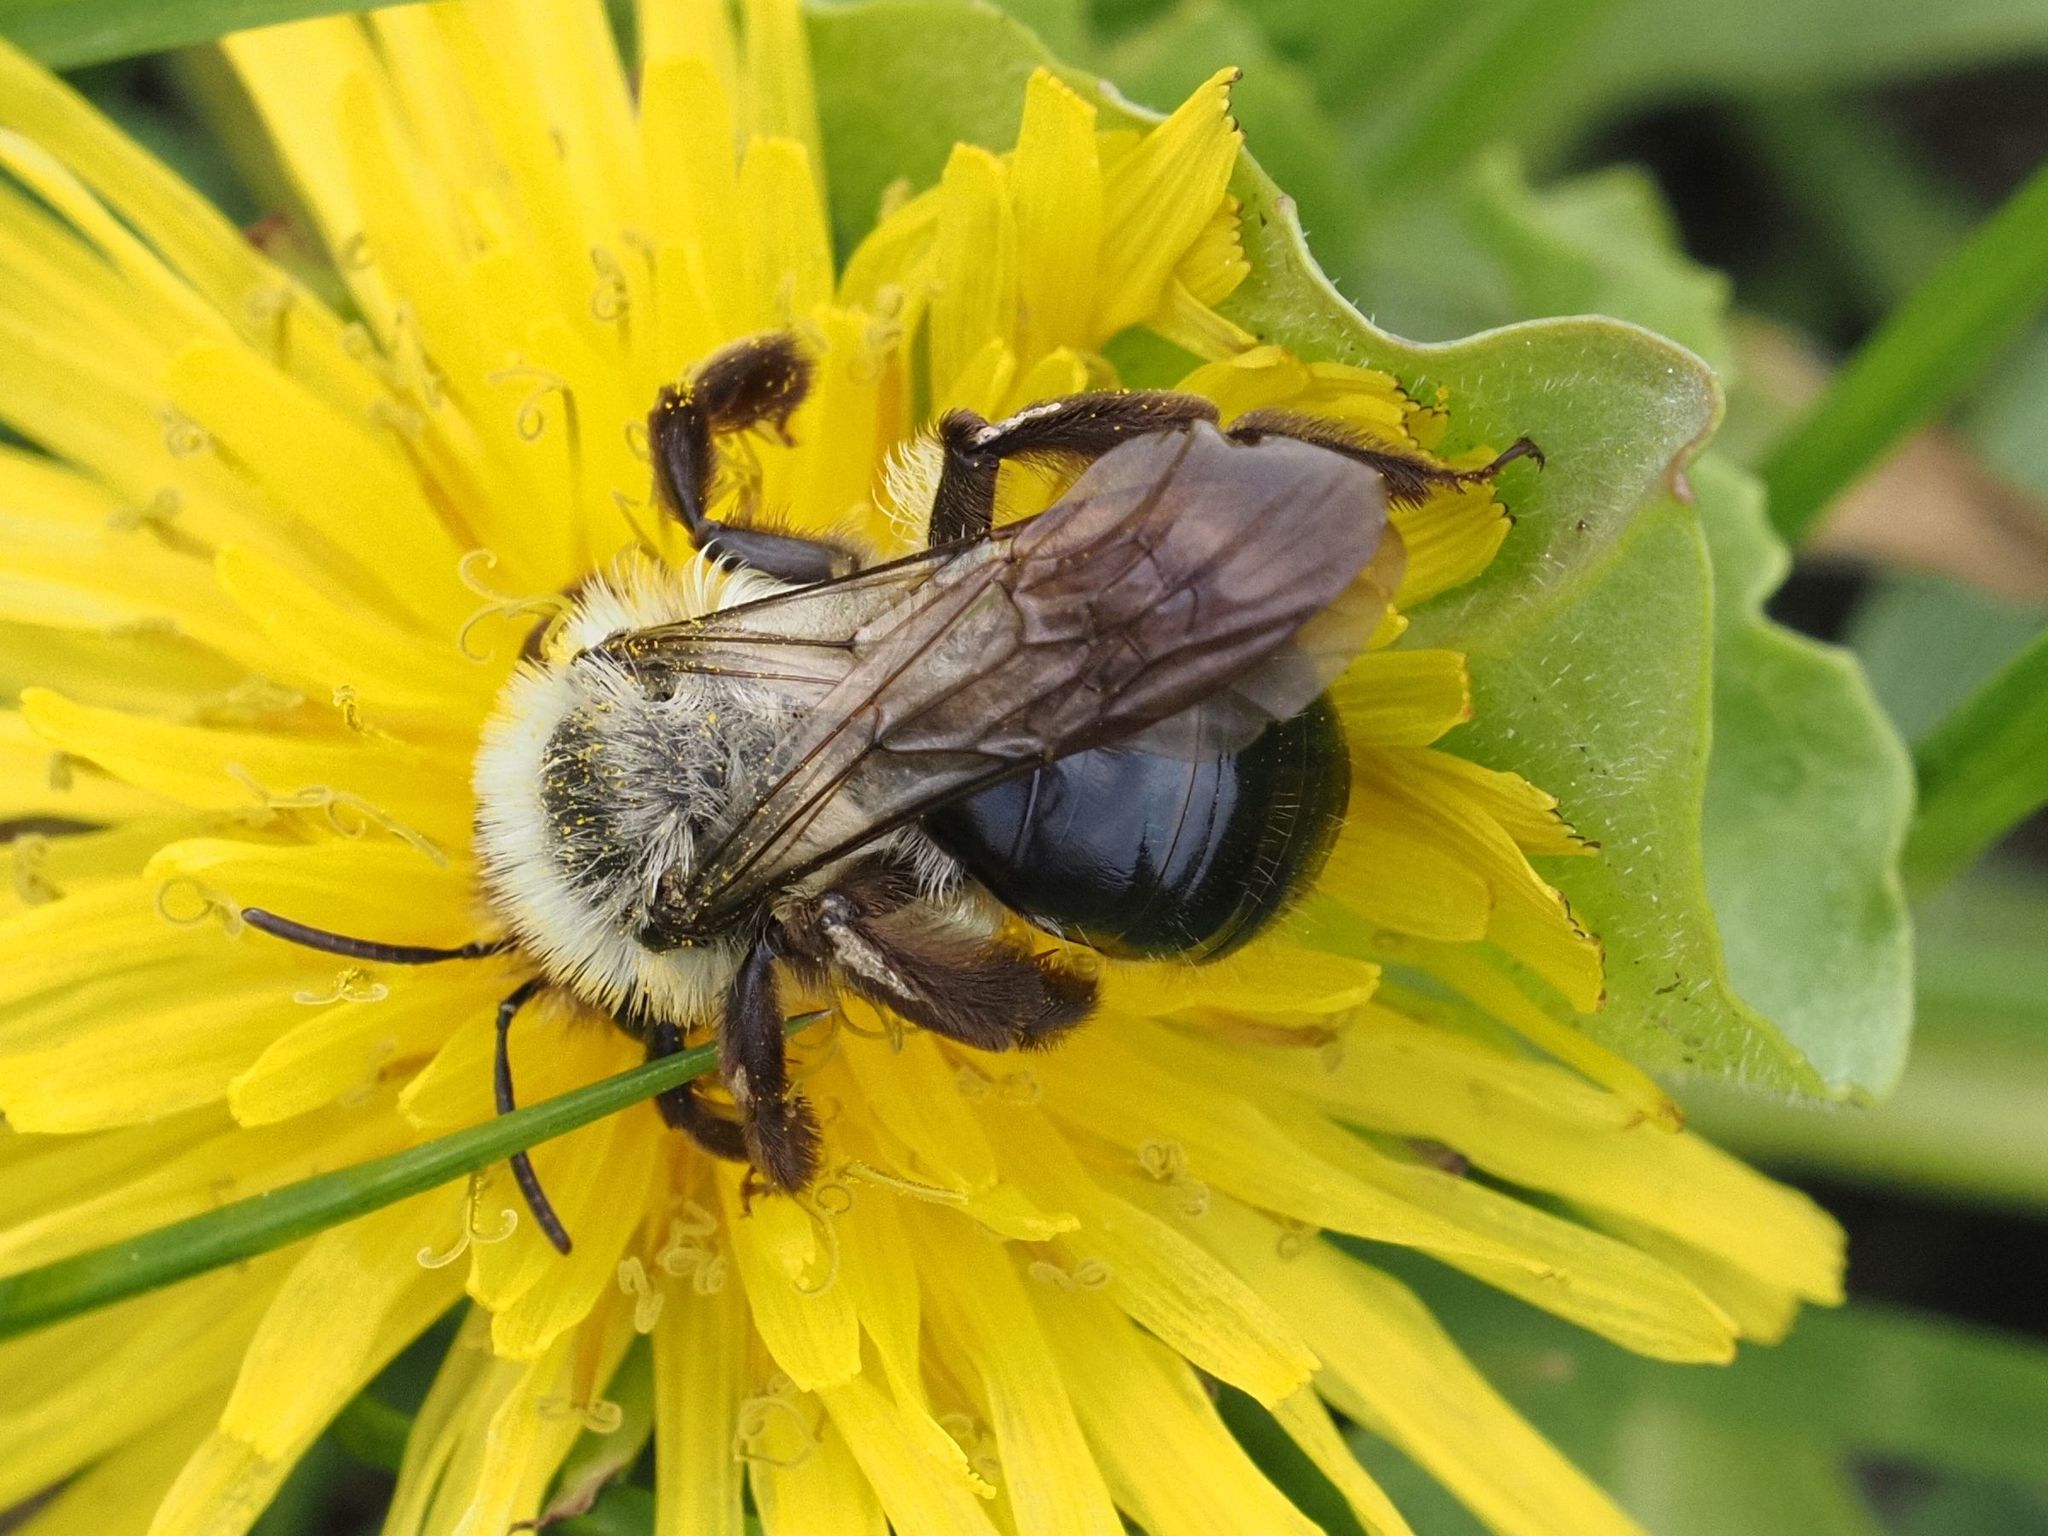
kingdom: Animalia
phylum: Arthropoda
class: Insecta
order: Hymenoptera
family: Andrenidae
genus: Andrena
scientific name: Andrena vaga
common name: Grey-backed mining bee
